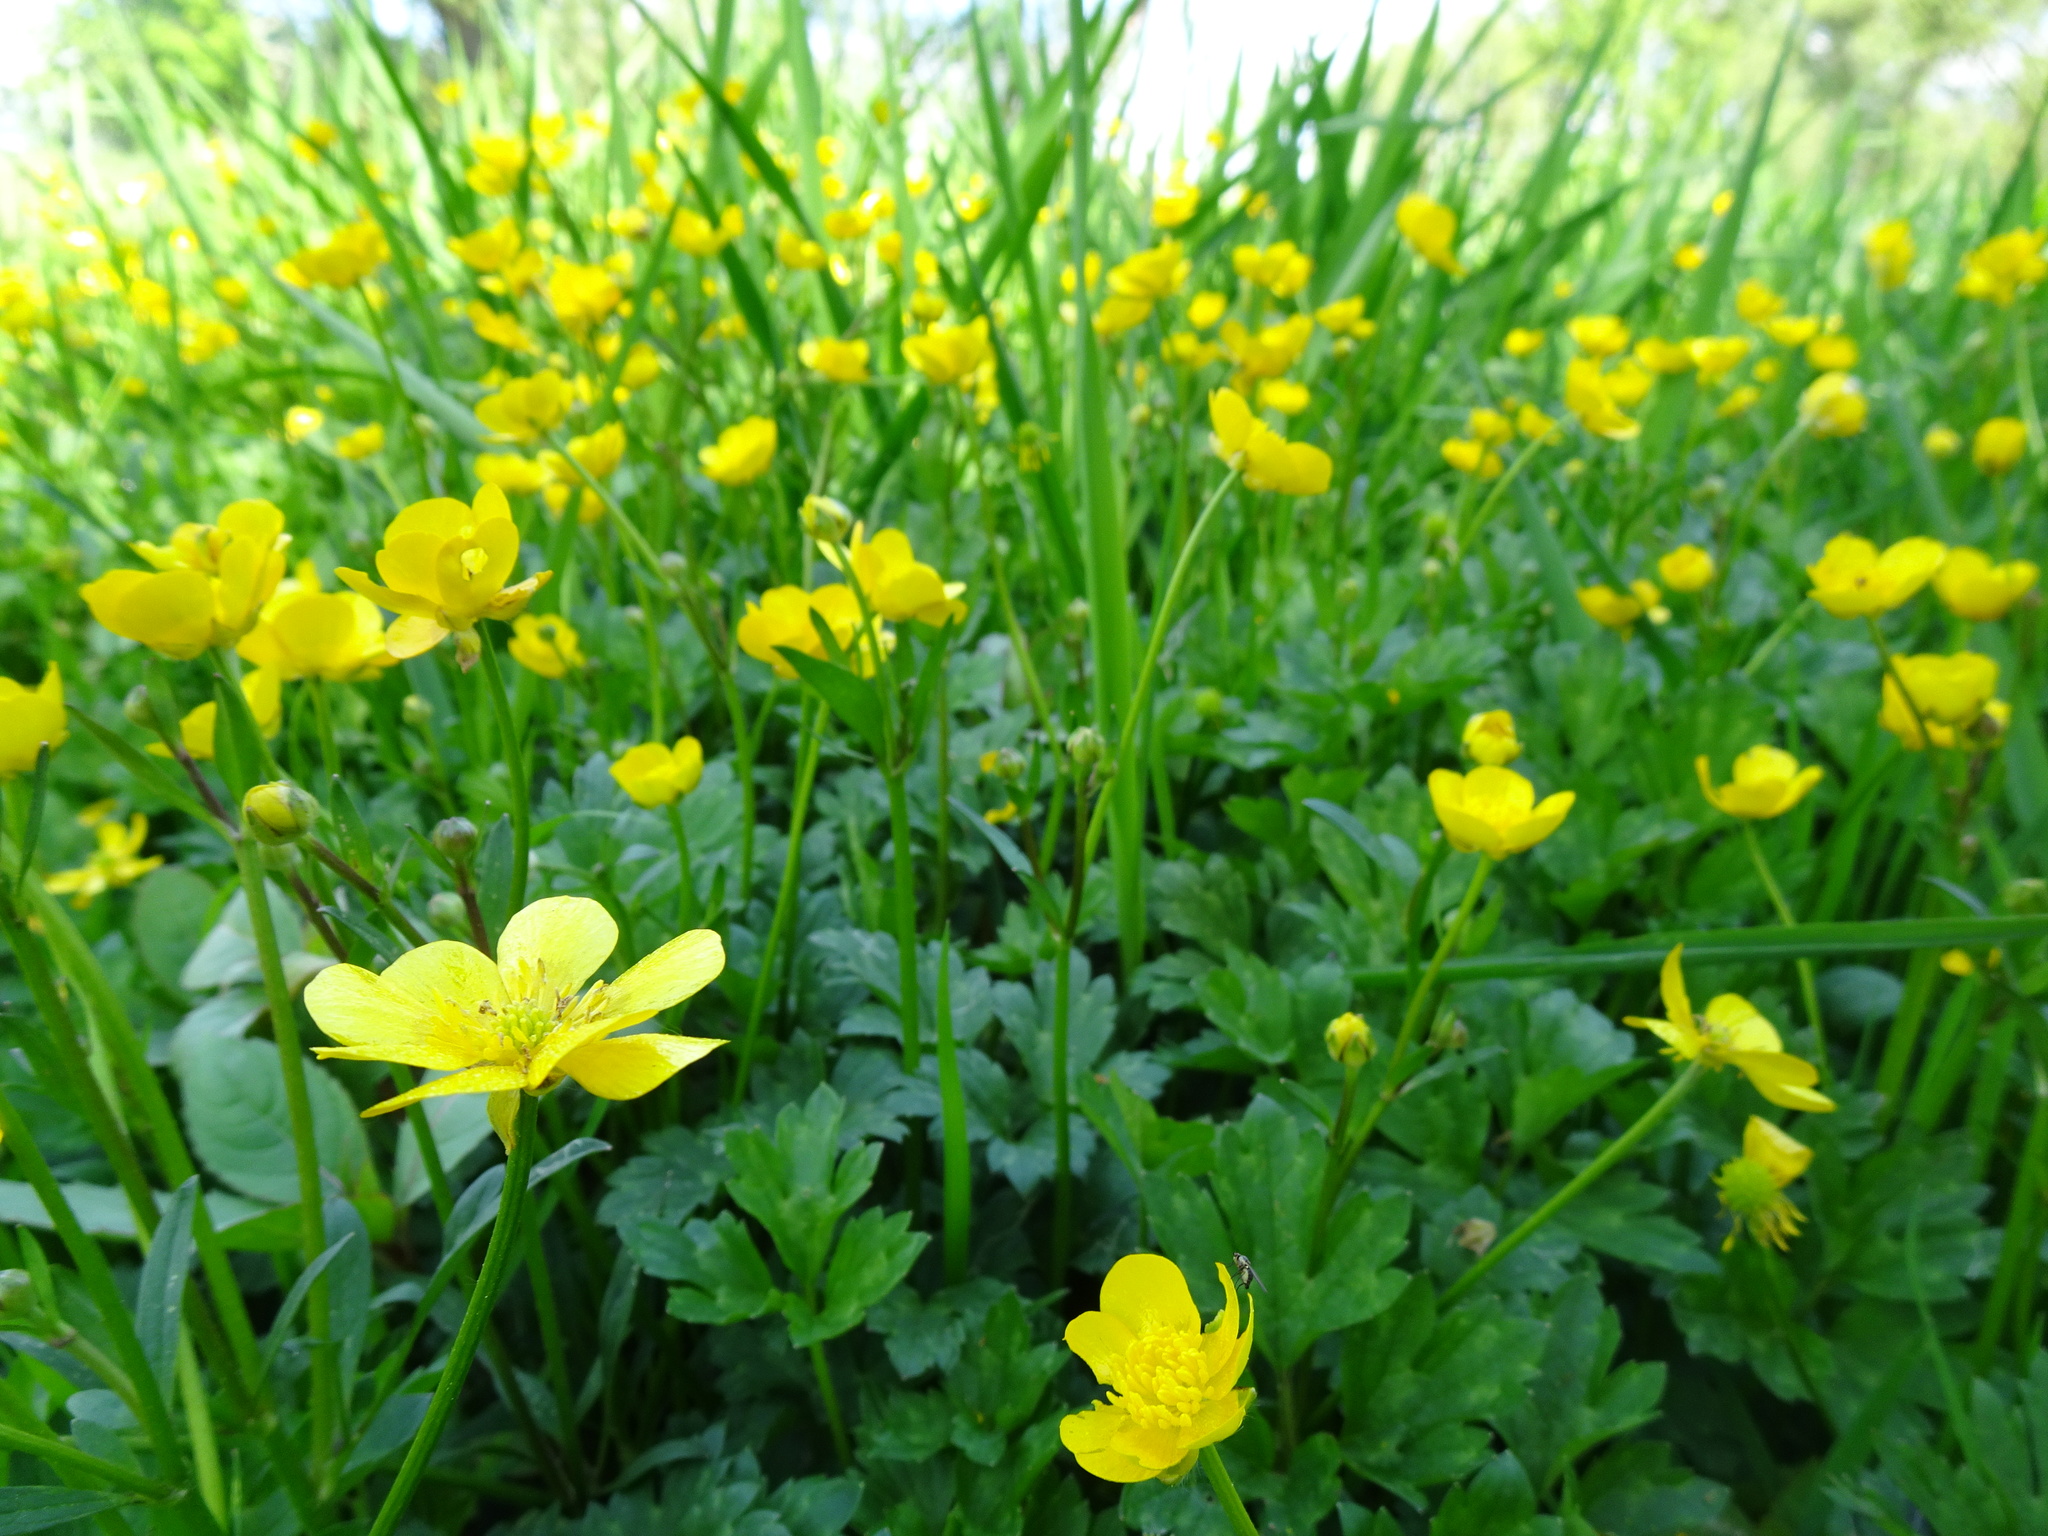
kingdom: Plantae
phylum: Tracheophyta
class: Magnoliopsida
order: Ranunculales
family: Ranunculaceae
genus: Ranunculus
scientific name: Ranunculus repens
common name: Creeping buttercup
